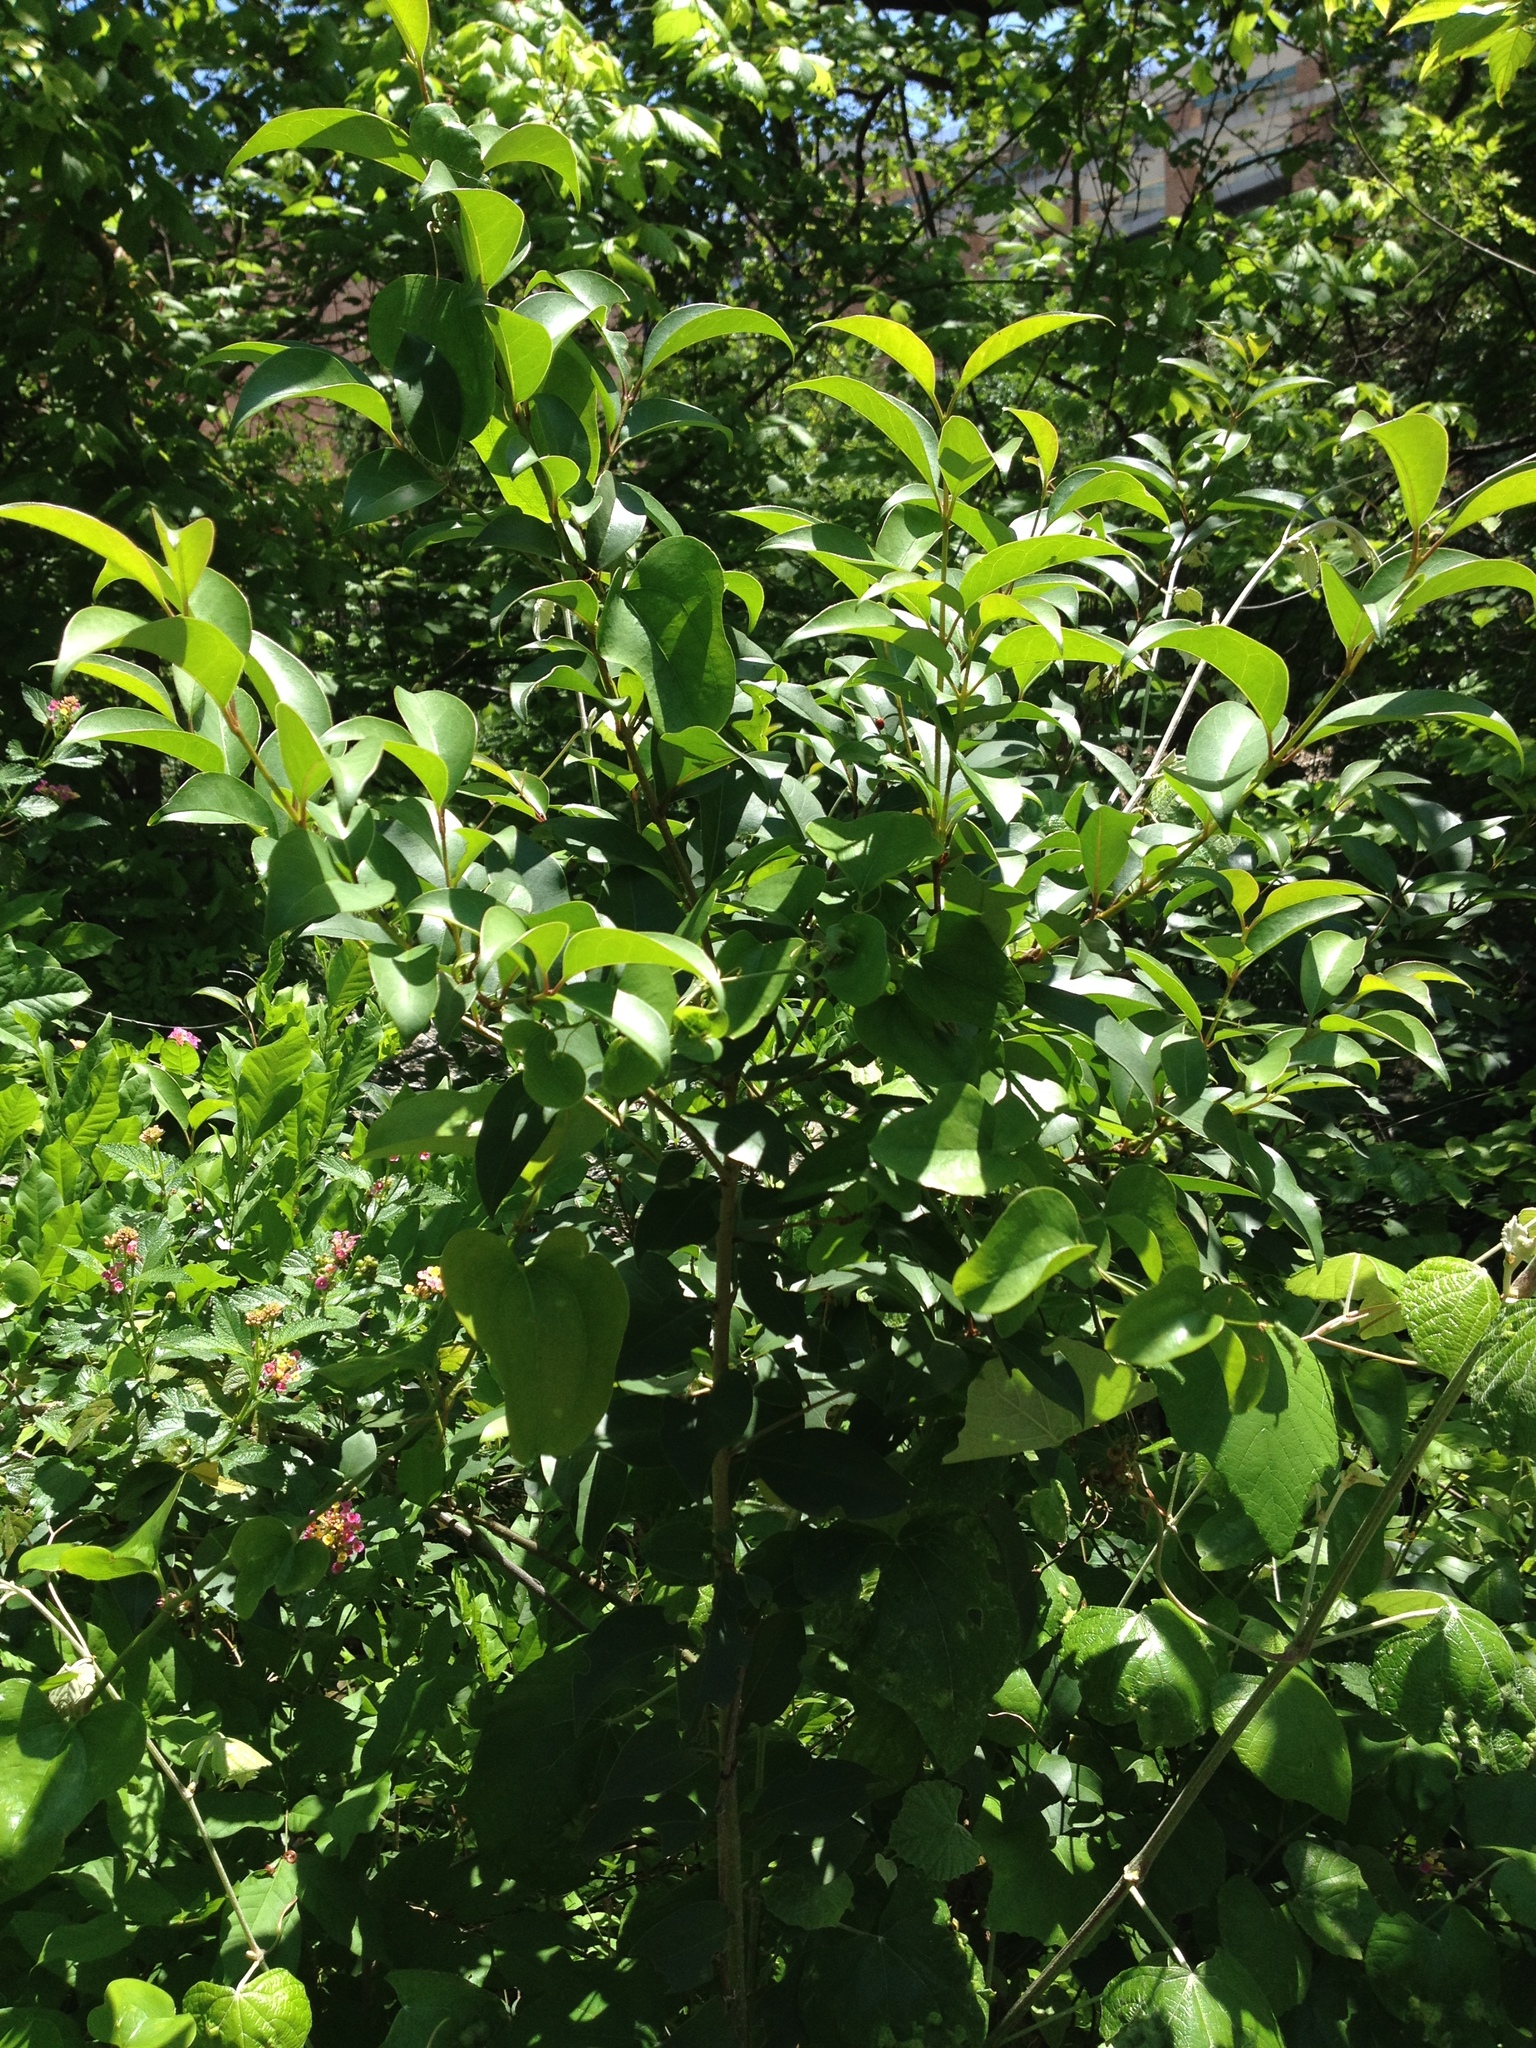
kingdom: Plantae
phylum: Tracheophyta
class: Magnoliopsida
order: Lamiales
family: Oleaceae
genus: Ligustrum
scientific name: Ligustrum lucidum
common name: Glossy privet
